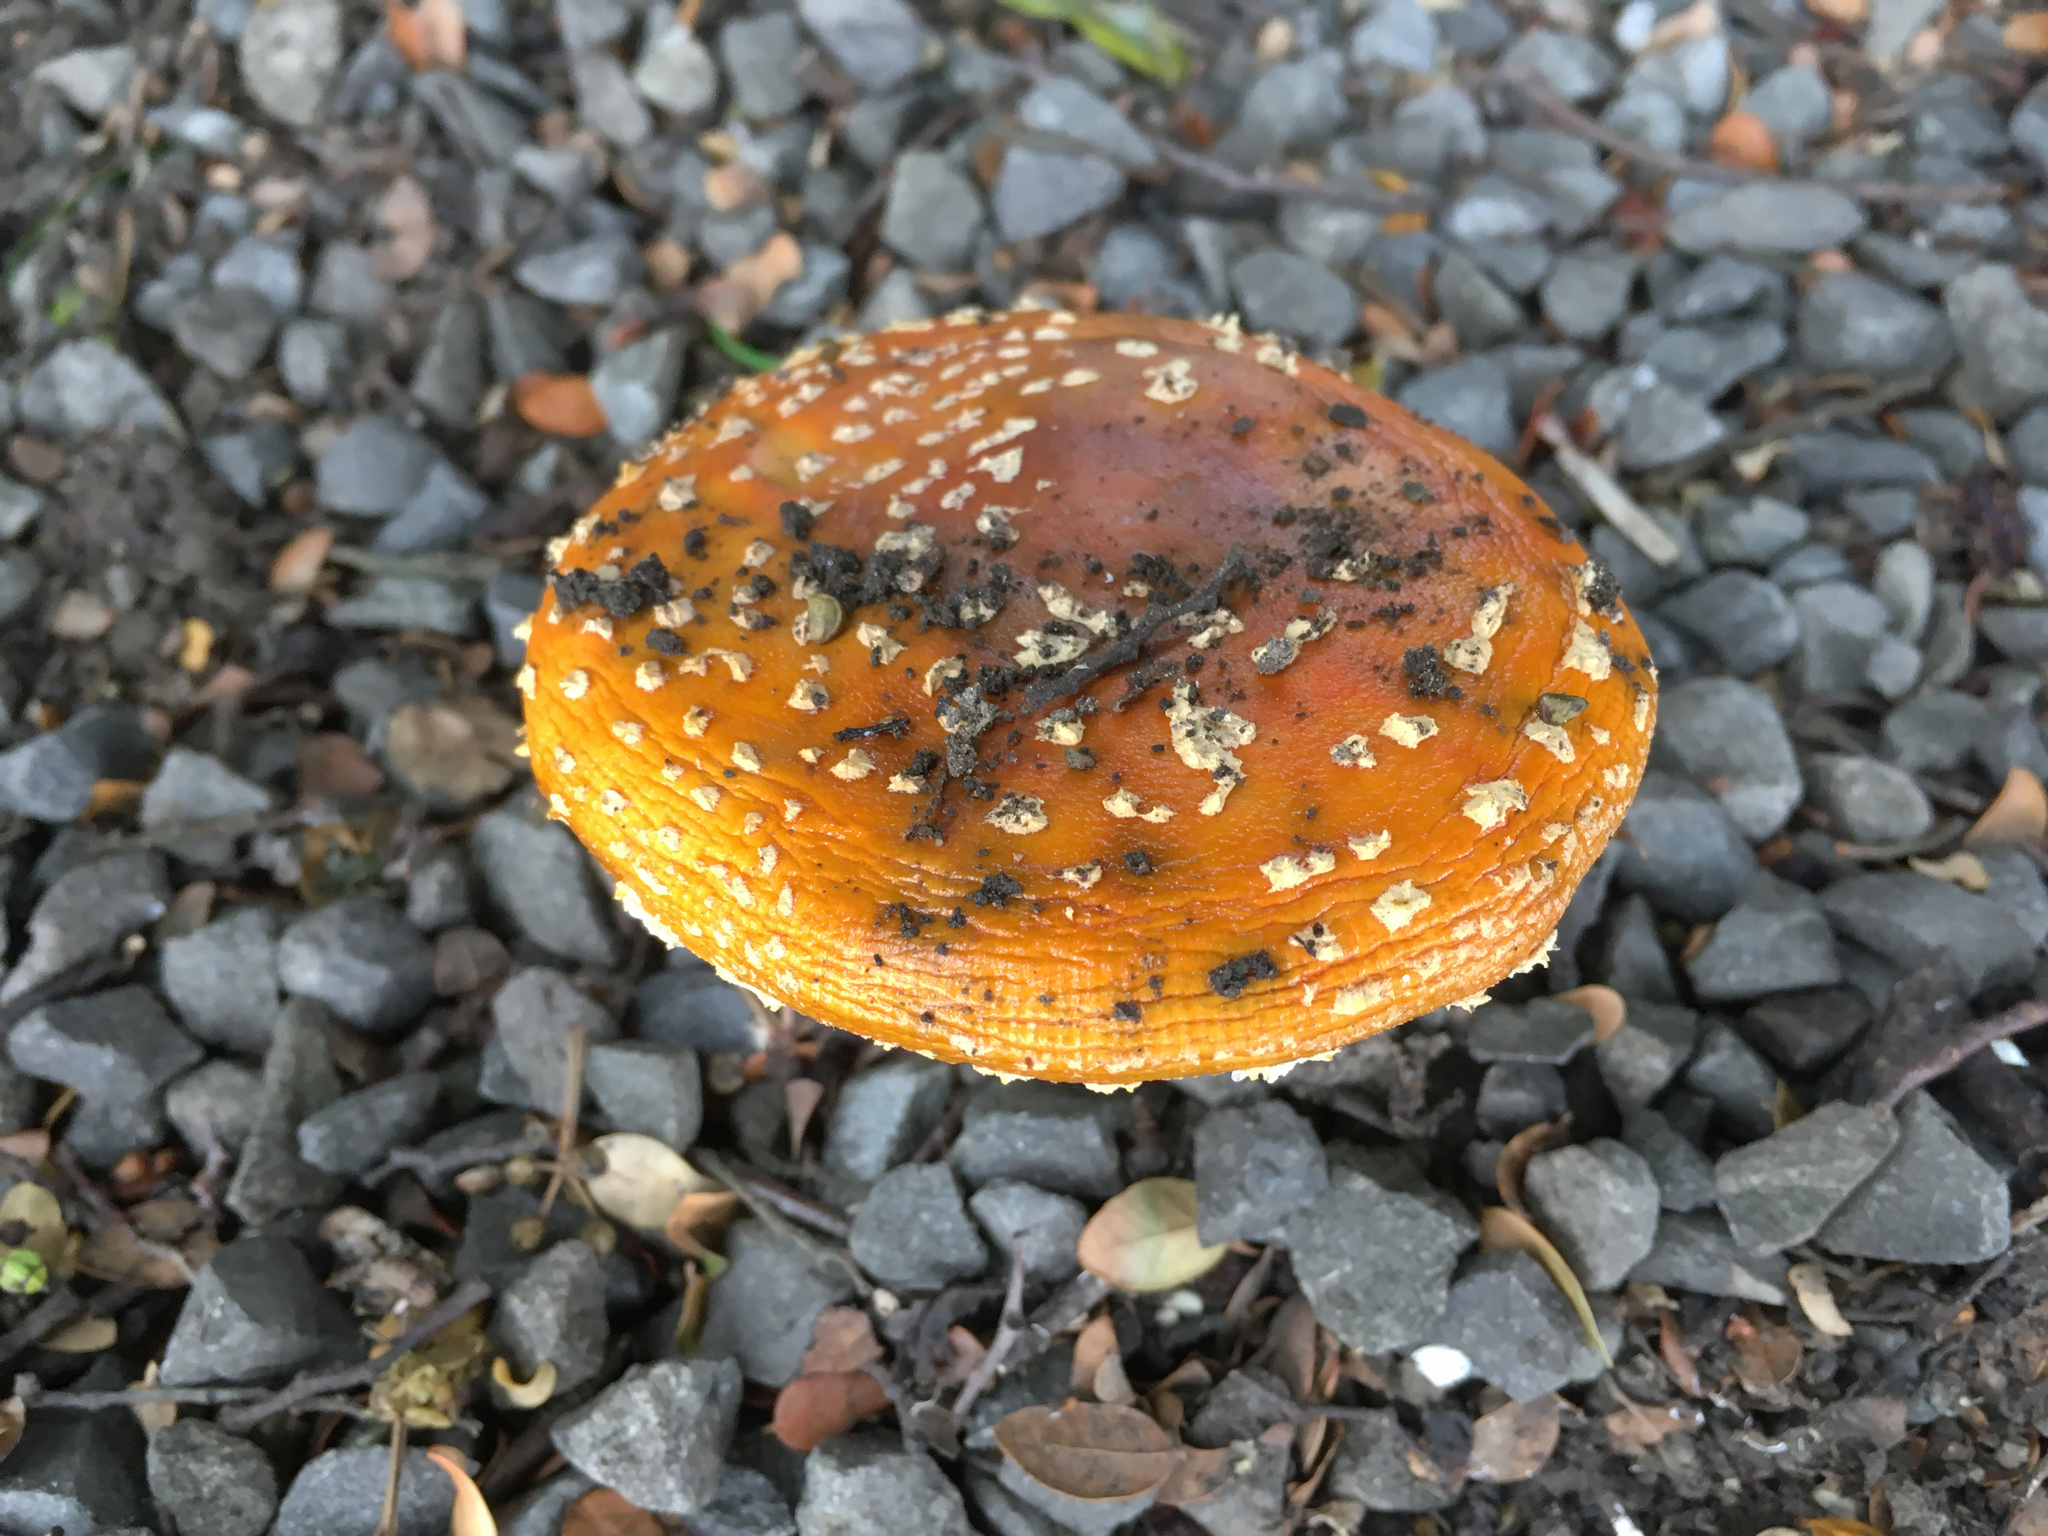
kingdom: Fungi
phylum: Basidiomycota
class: Agaricomycetes
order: Agaricales
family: Amanitaceae
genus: Amanita
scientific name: Amanita muscaria
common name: Fly agaric
